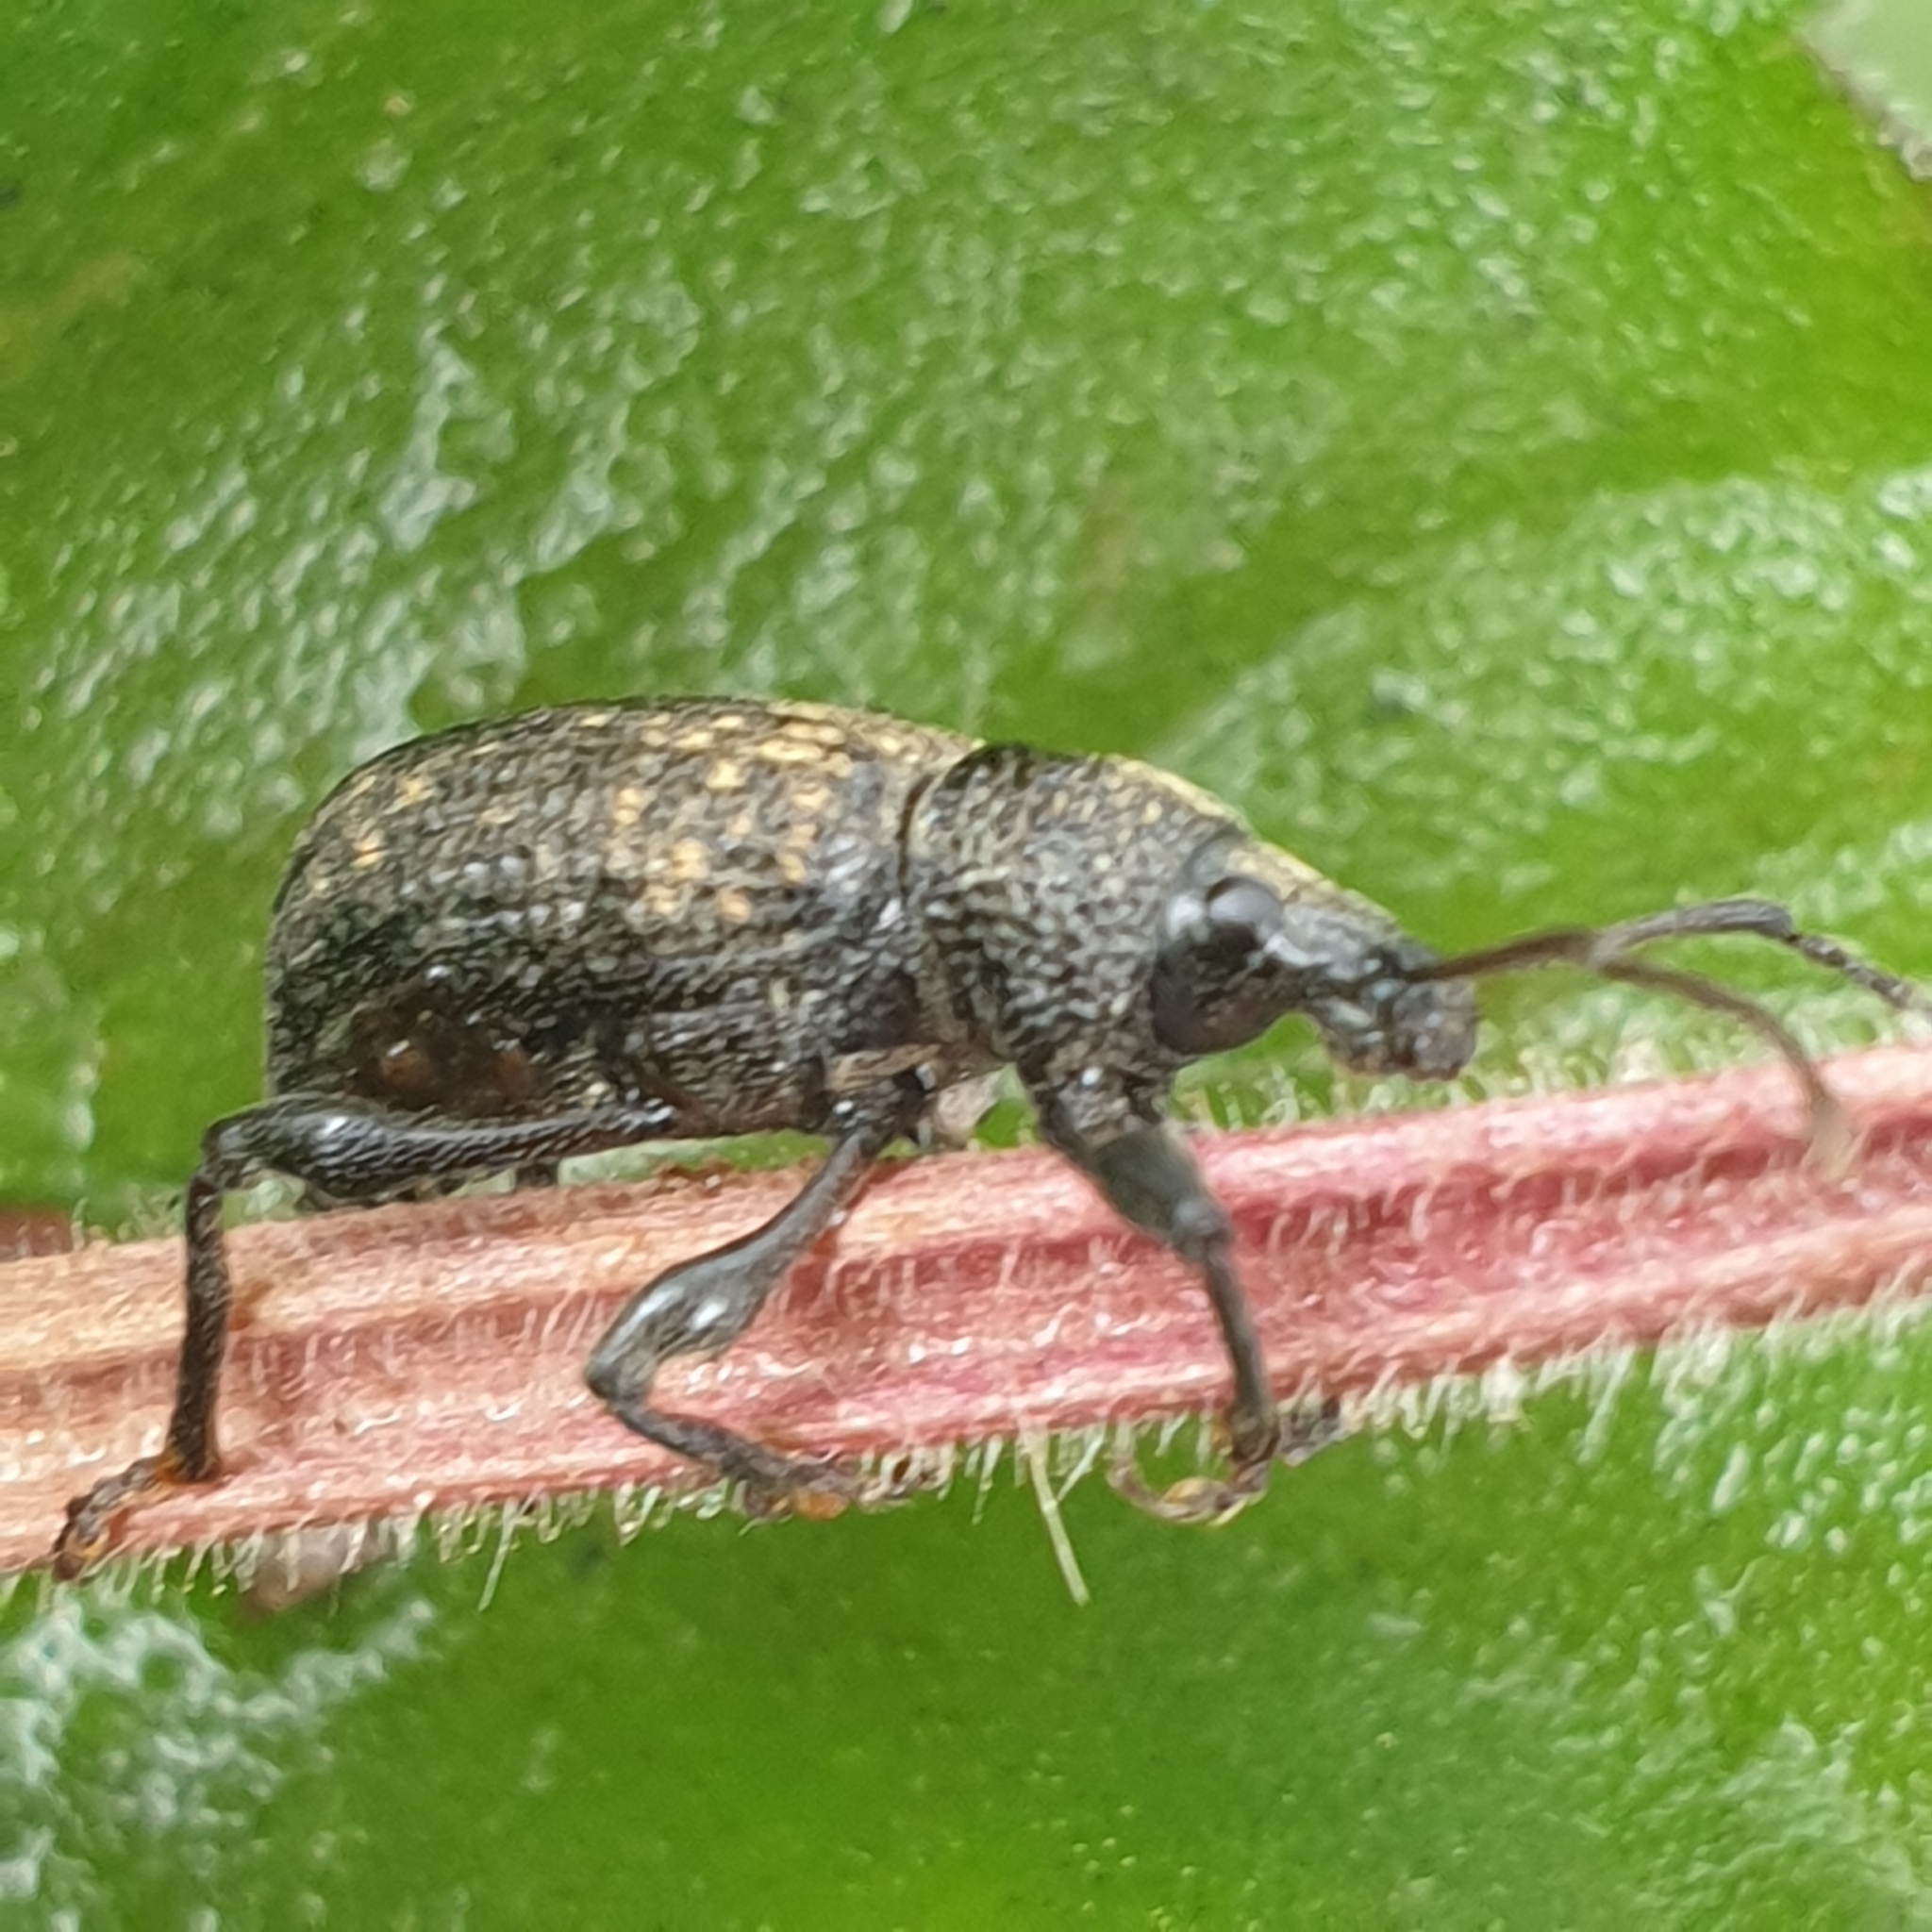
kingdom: Animalia
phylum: Arthropoda
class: Insecta
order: Coleoptera
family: Curculionidae
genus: Otiorhynchus
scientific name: Otiorhynchus sulcatus
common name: Black vine weevil
